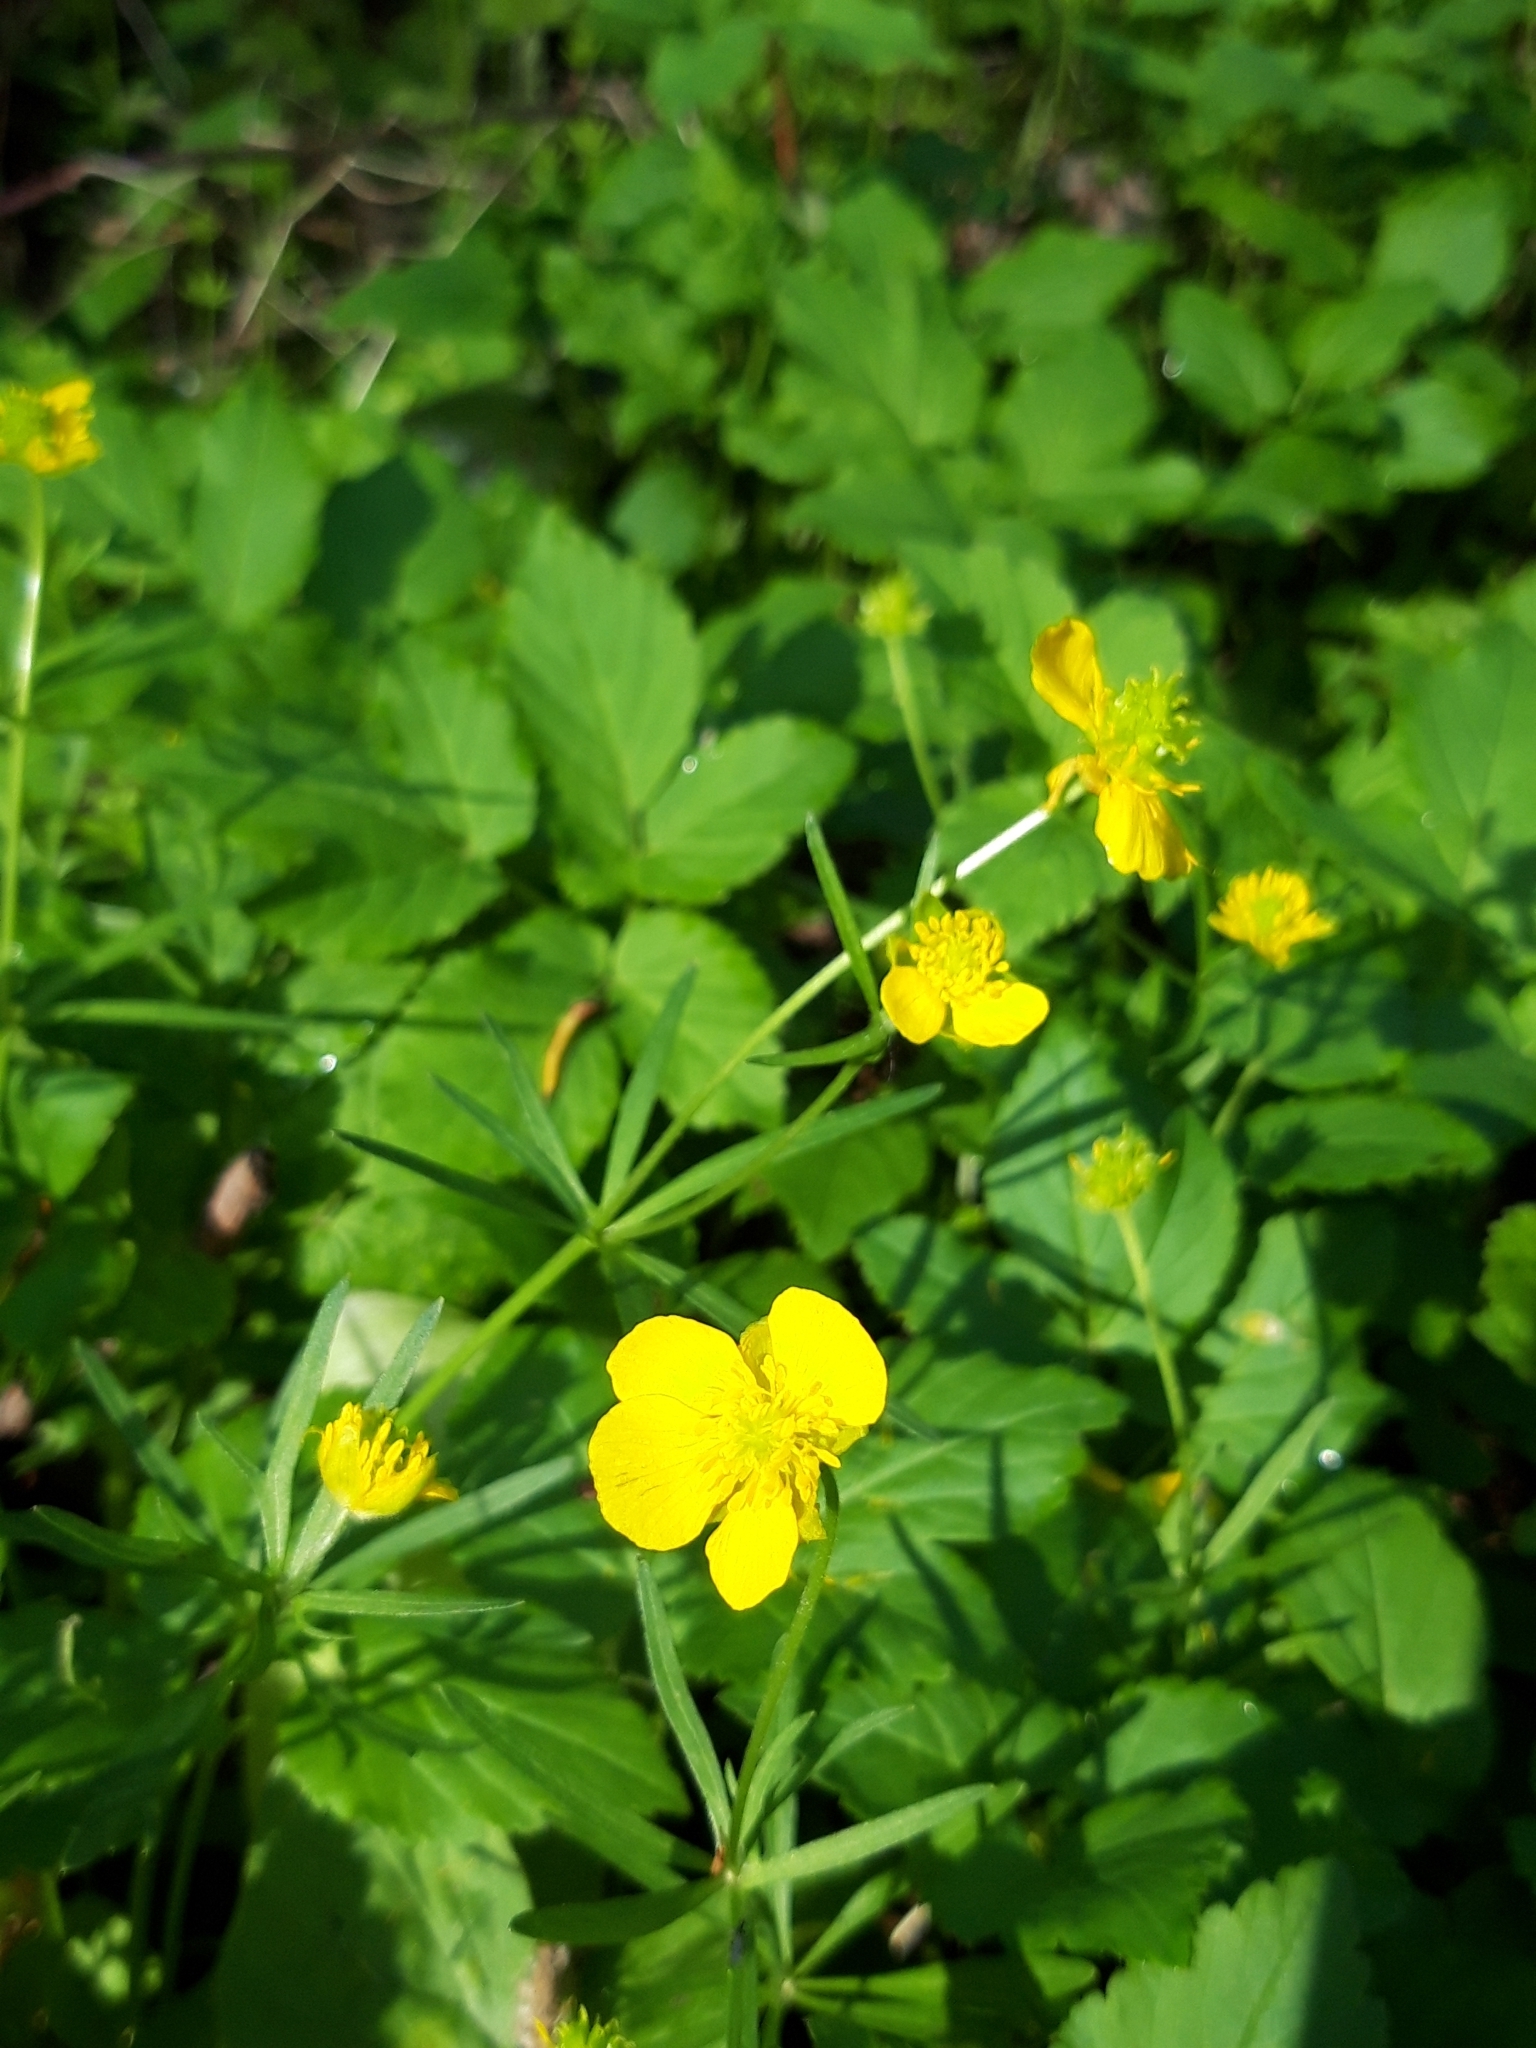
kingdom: Plantae
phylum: Tracheophyta
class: Magnoliopsida
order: Ranunculales
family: Ranunculaceae
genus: Ranunculus
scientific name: Ranunculus auricomus
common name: Goldilocks buttercup
